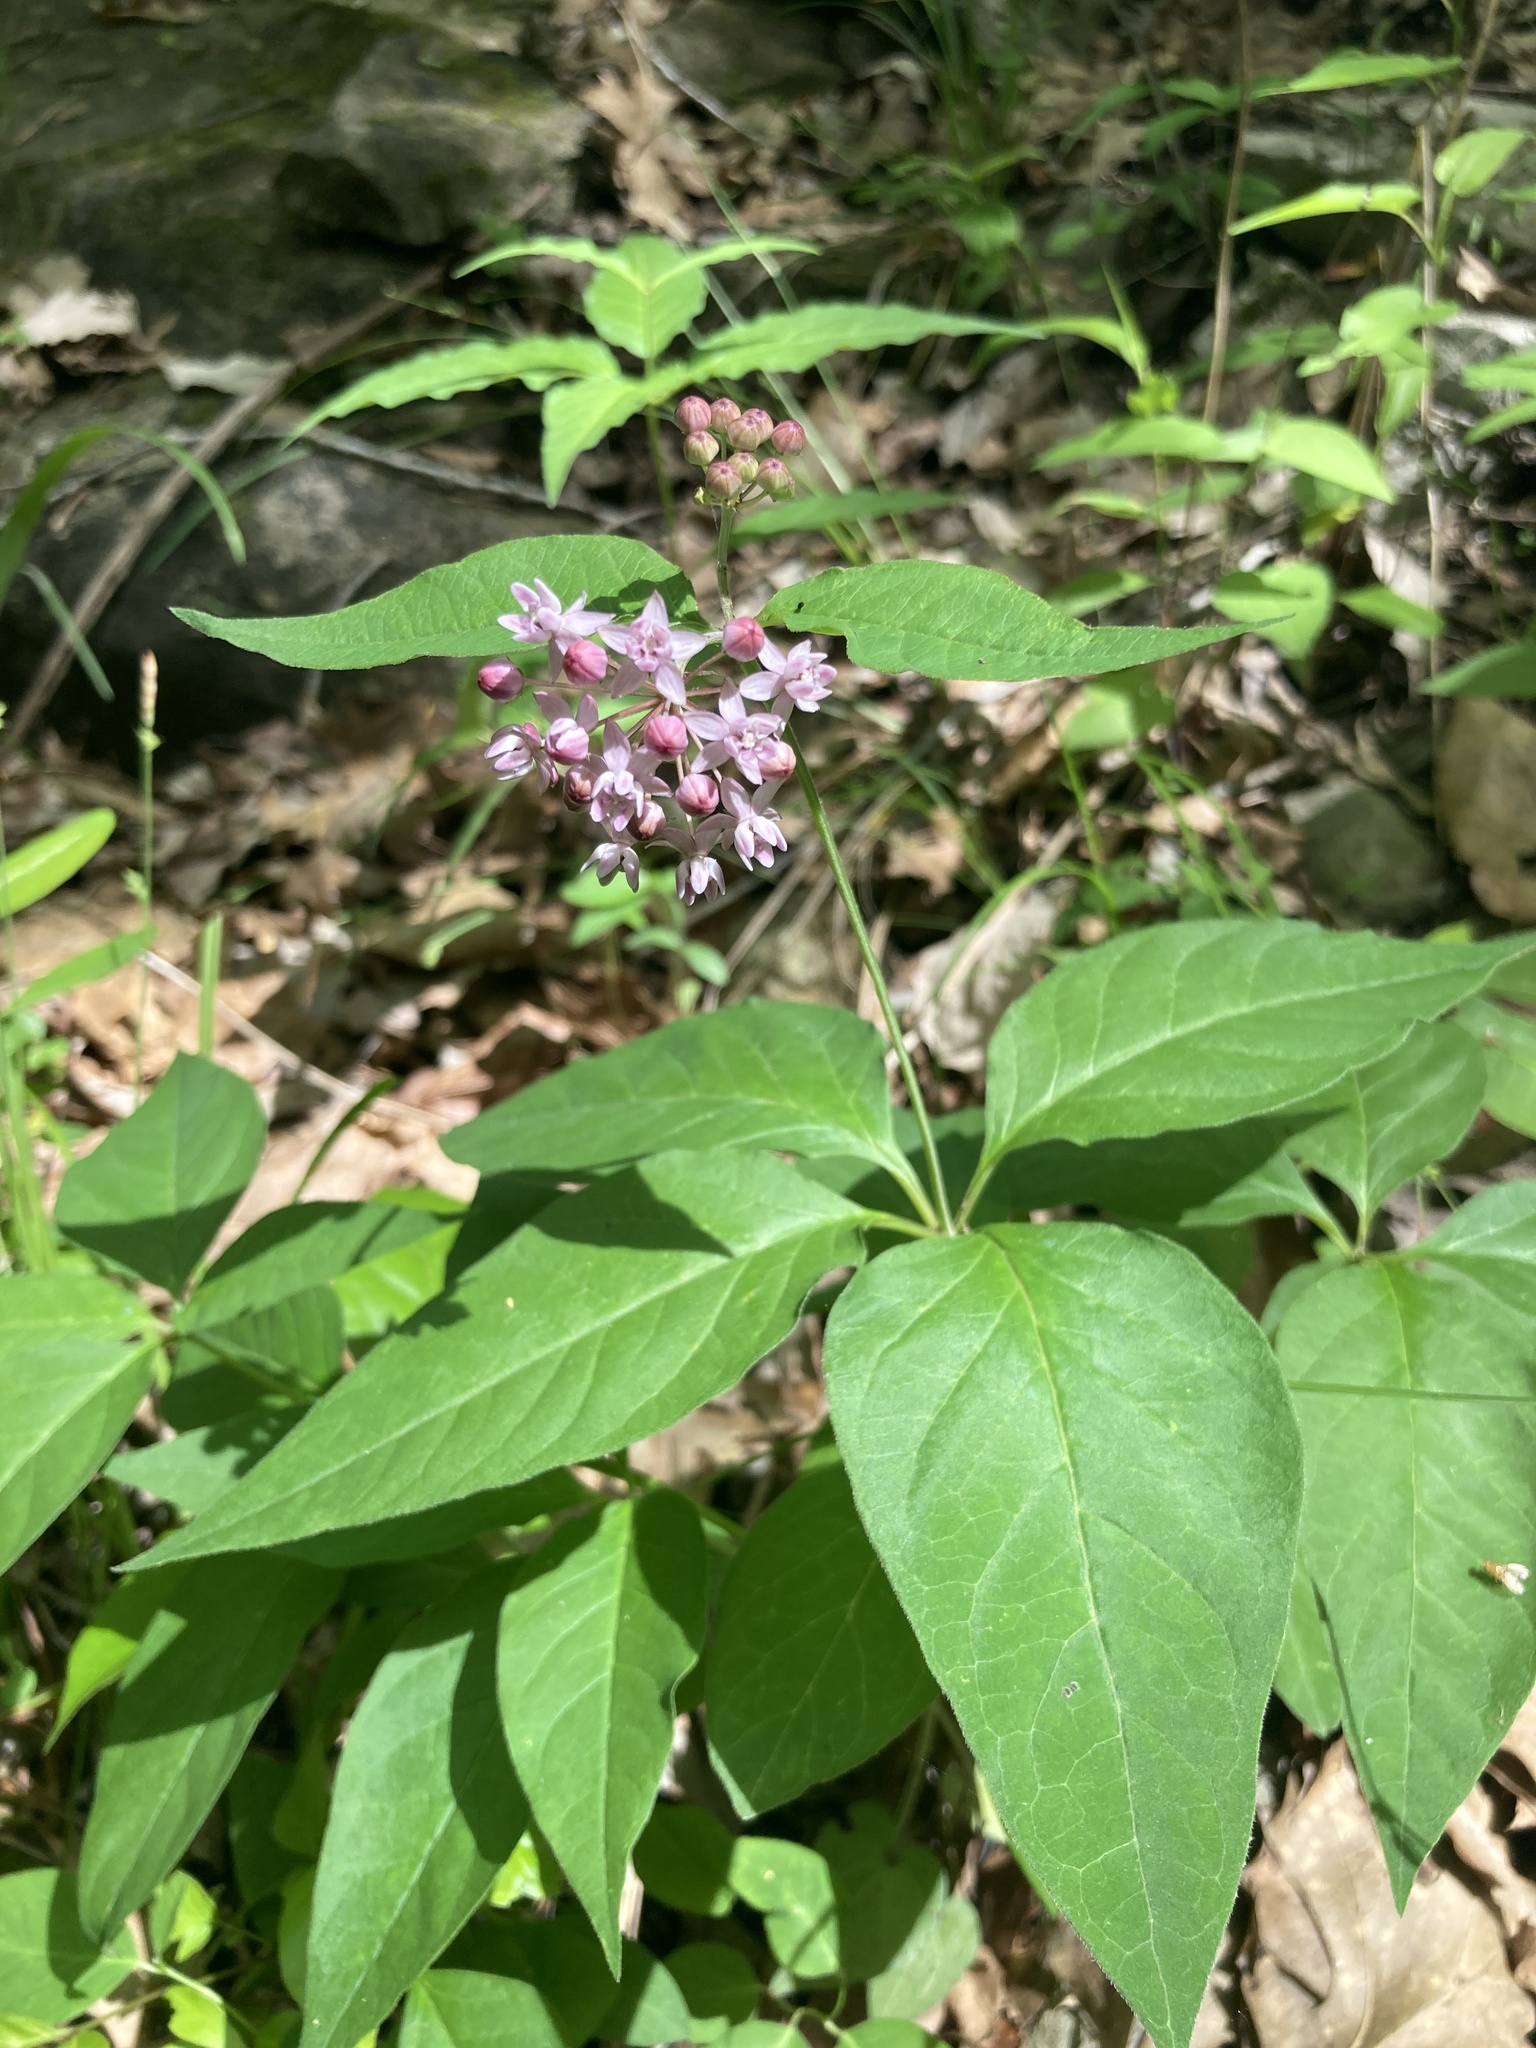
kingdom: Plantae
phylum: Tracheophyta
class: Magnoliopsida
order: Gentianales
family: Apocynaceae
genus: Asclepias
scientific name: Asclepias quadrifolia
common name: Whorled milkweed
